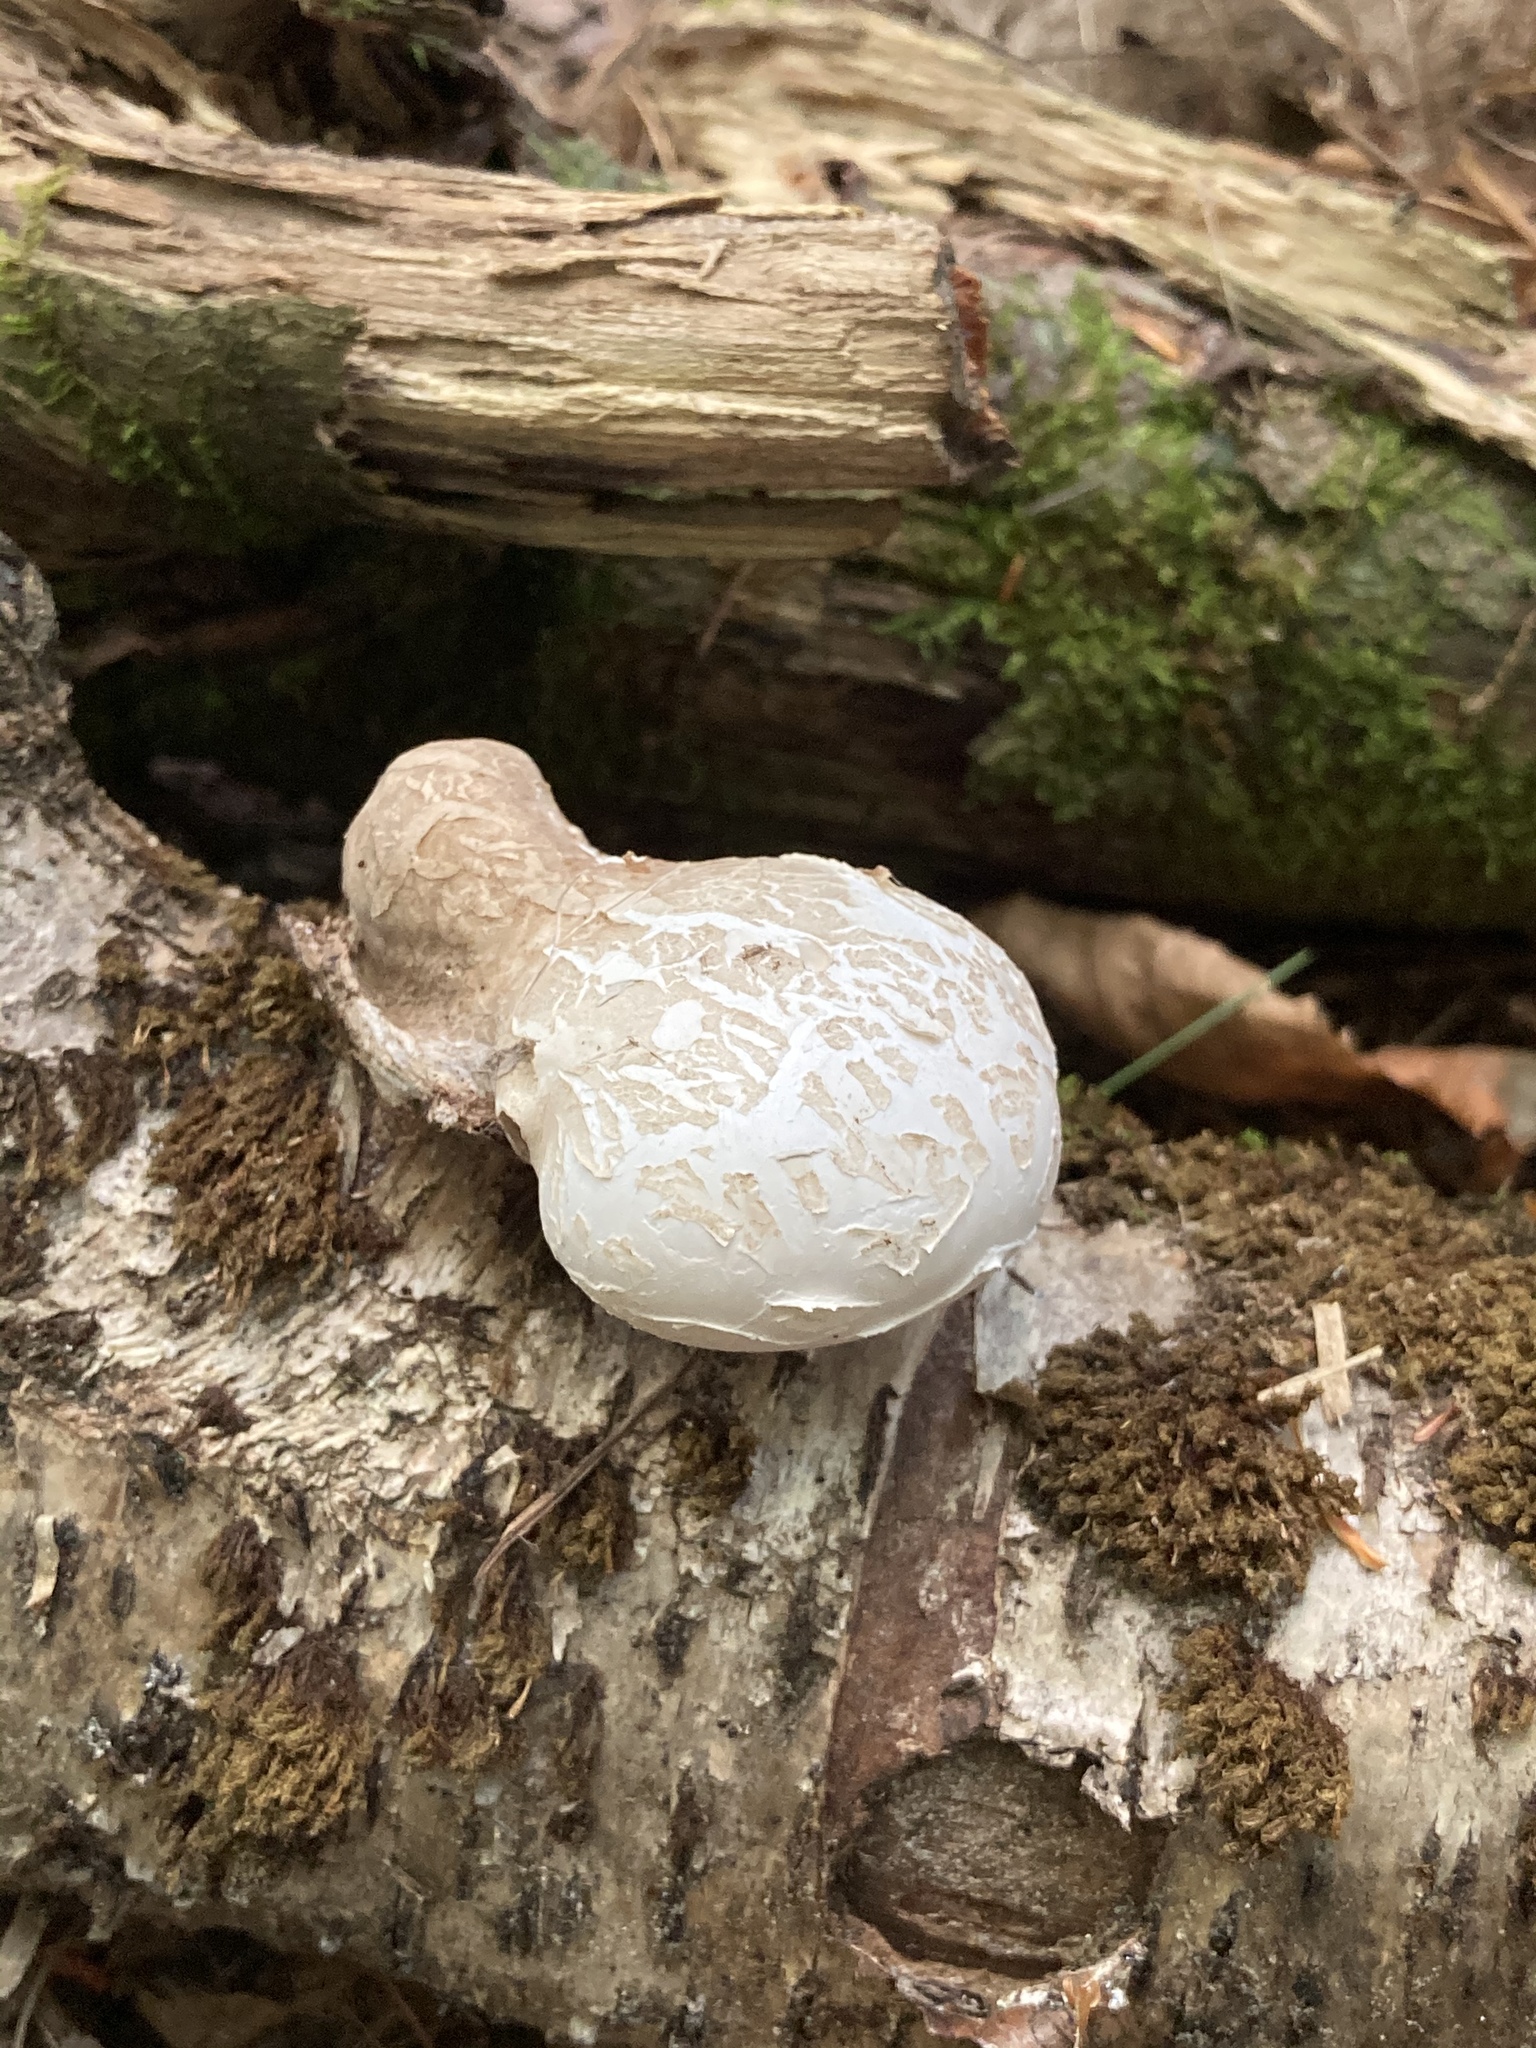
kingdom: Fungi
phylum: Basidiomycota
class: Agaricomycetes
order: Polyporales
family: Fomitopsidaceae
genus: Fomitopsis
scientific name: Fomitopsis betulina
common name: Birch polypore
